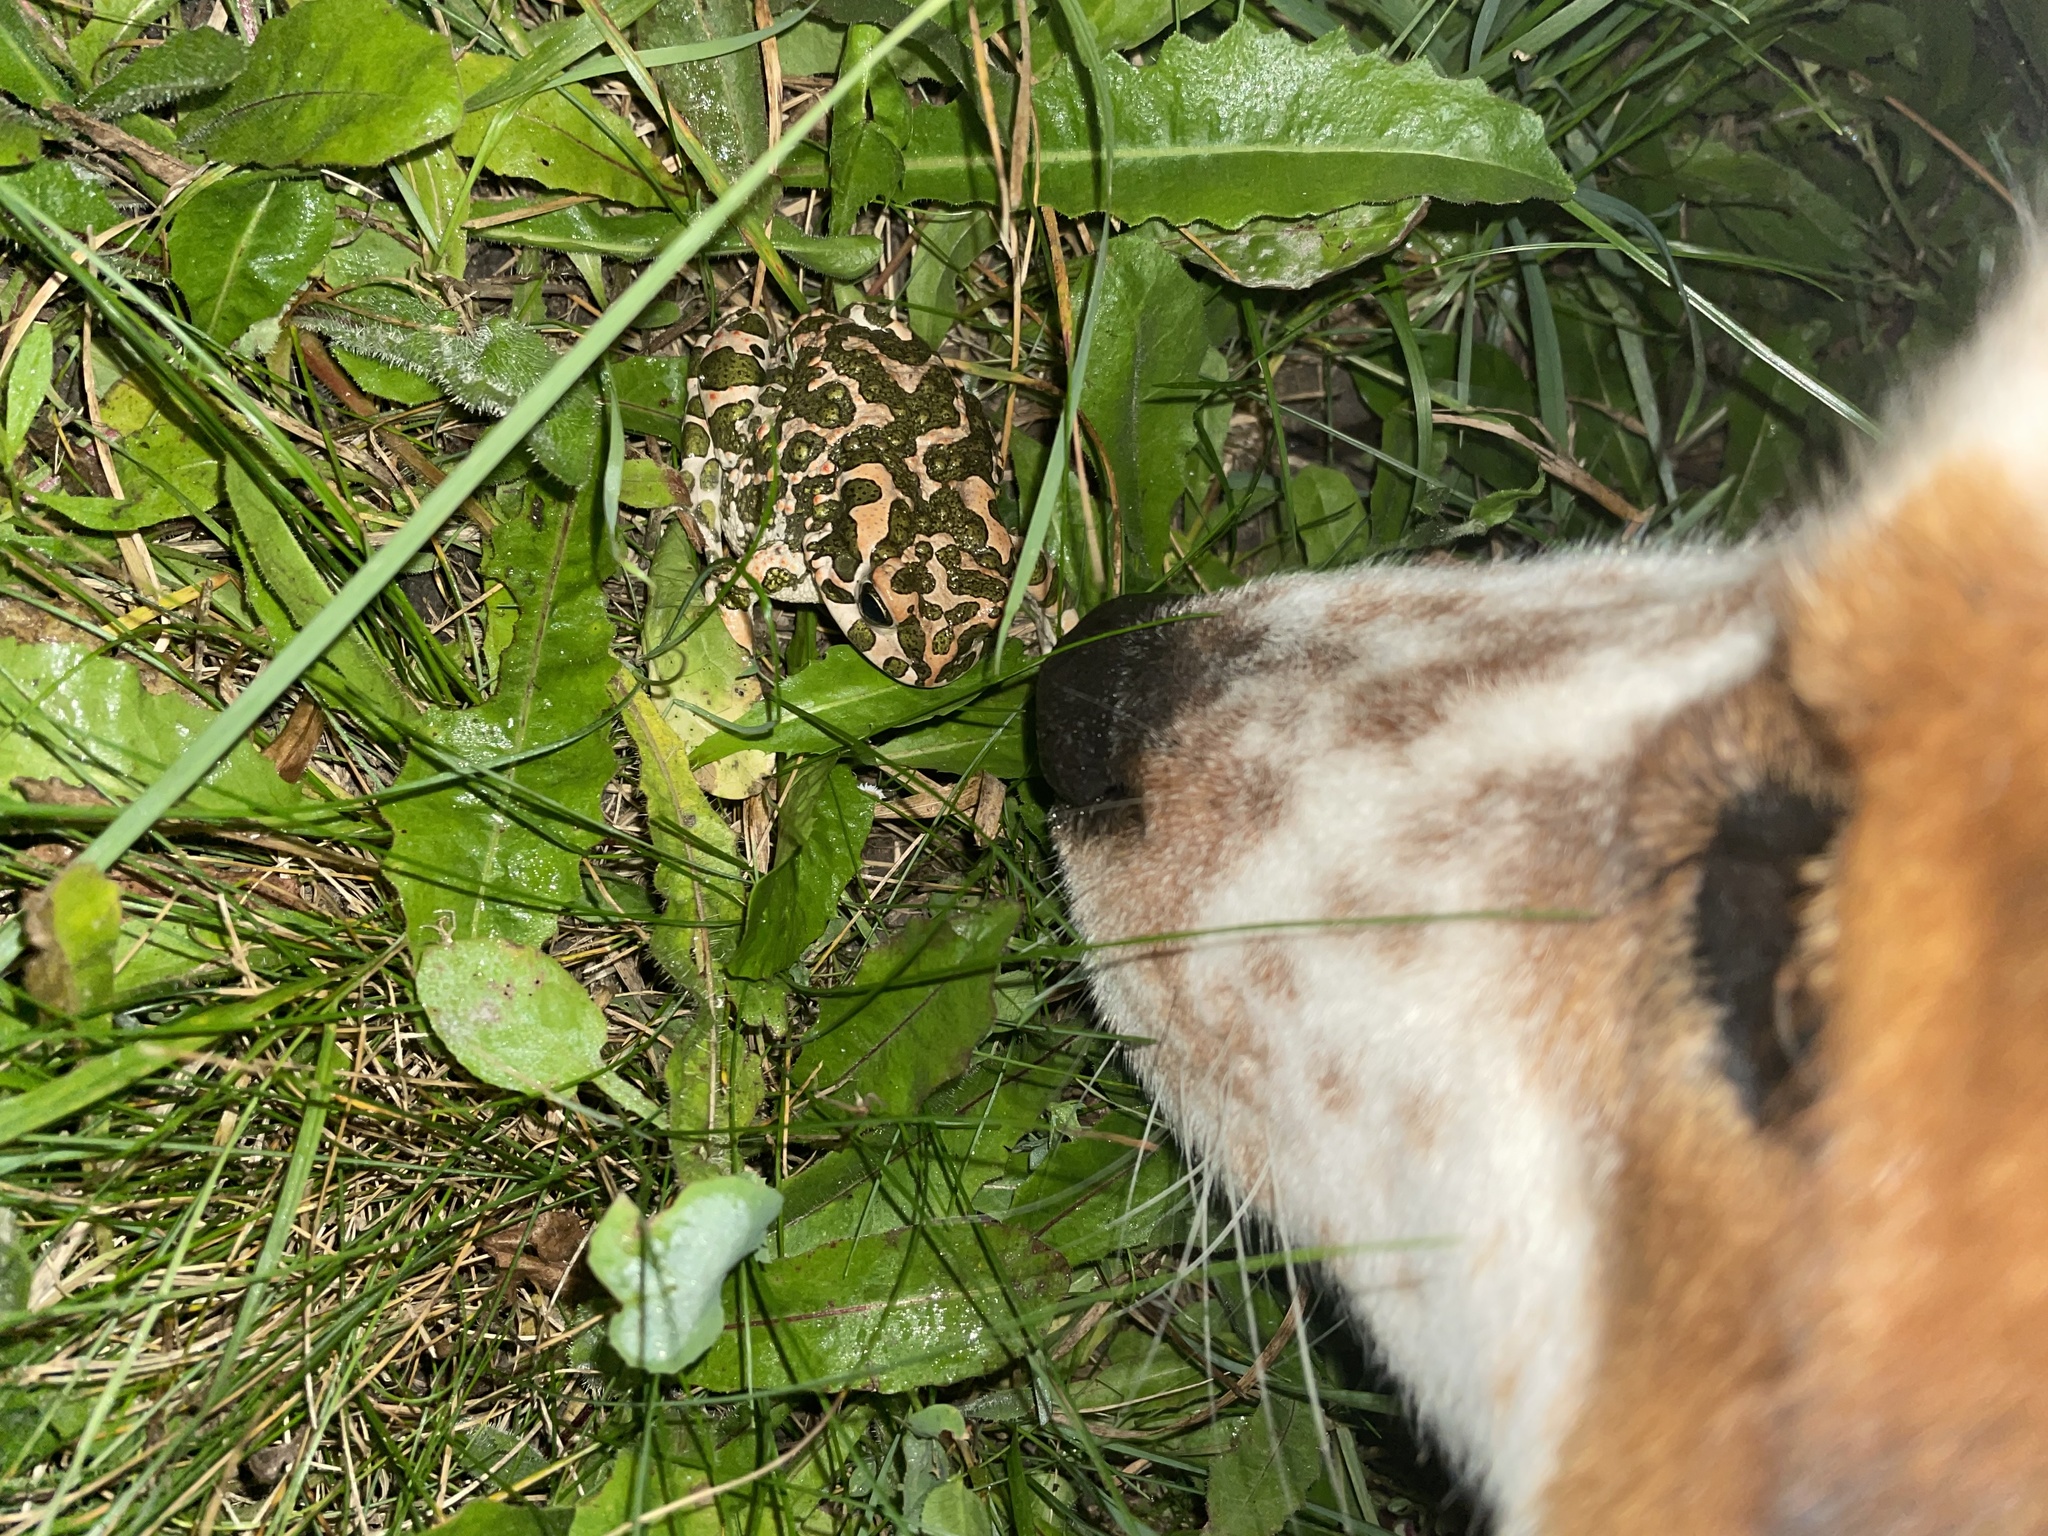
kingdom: Animalia
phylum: Chordata
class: Amphibia
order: Anura
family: Bufonidae
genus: Bufotes
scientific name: Bufotes viridis
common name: European green toad
